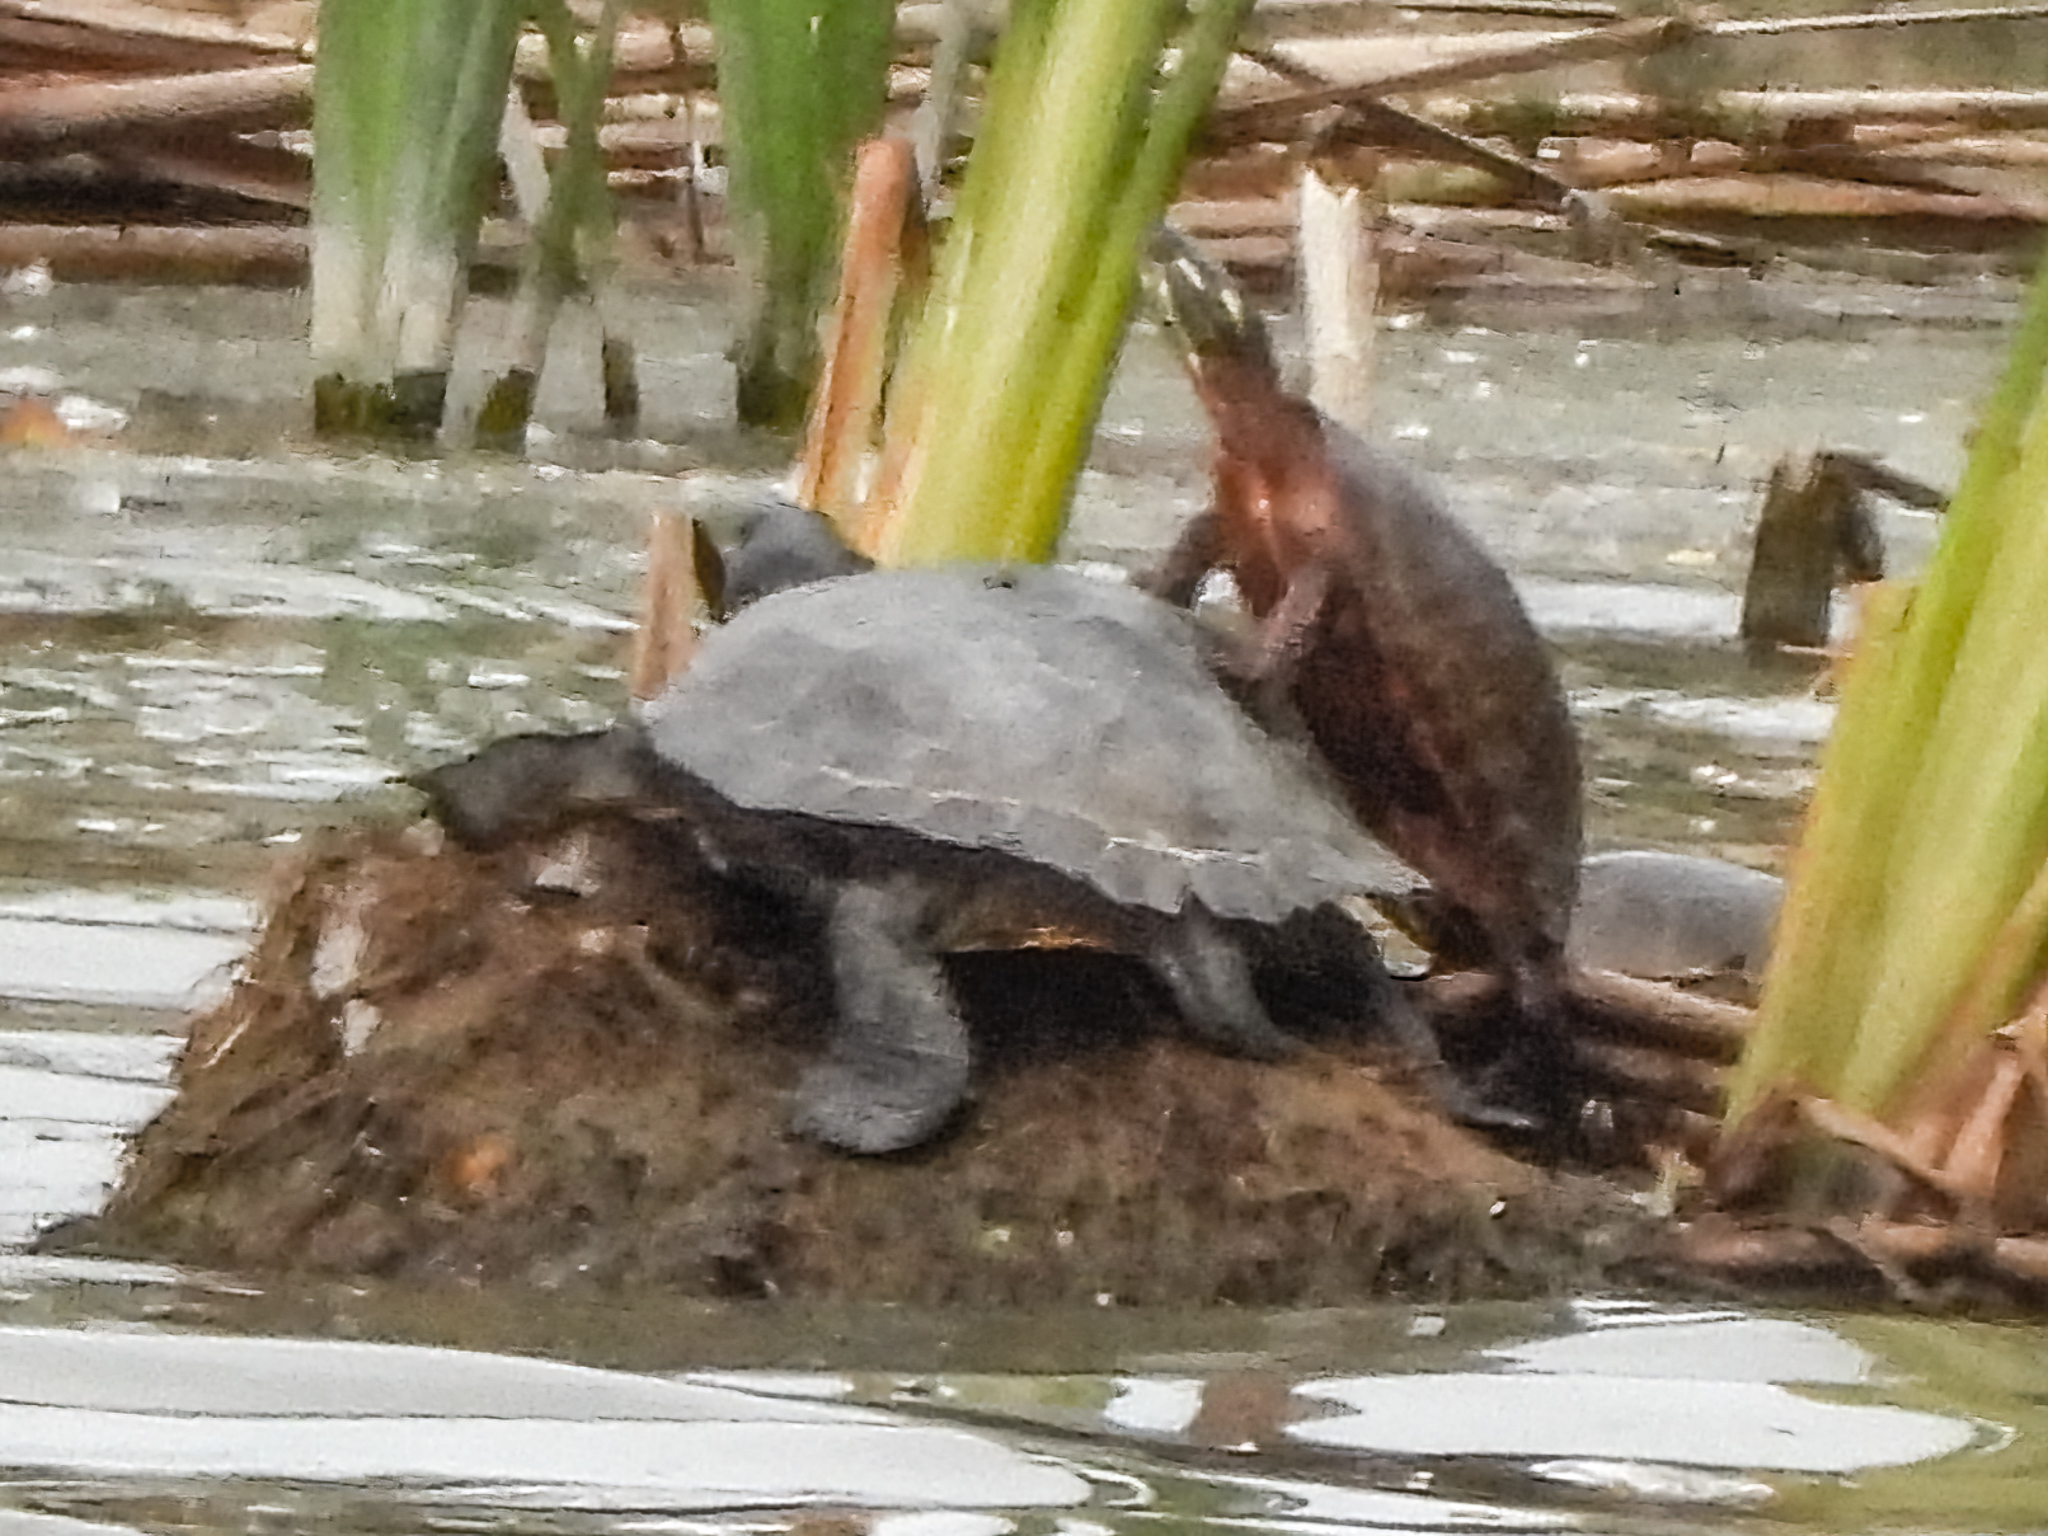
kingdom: Animalia
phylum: Chordata
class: Testudines
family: Emydidae
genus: Trachemys
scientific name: Trachemys scripta
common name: Slider
